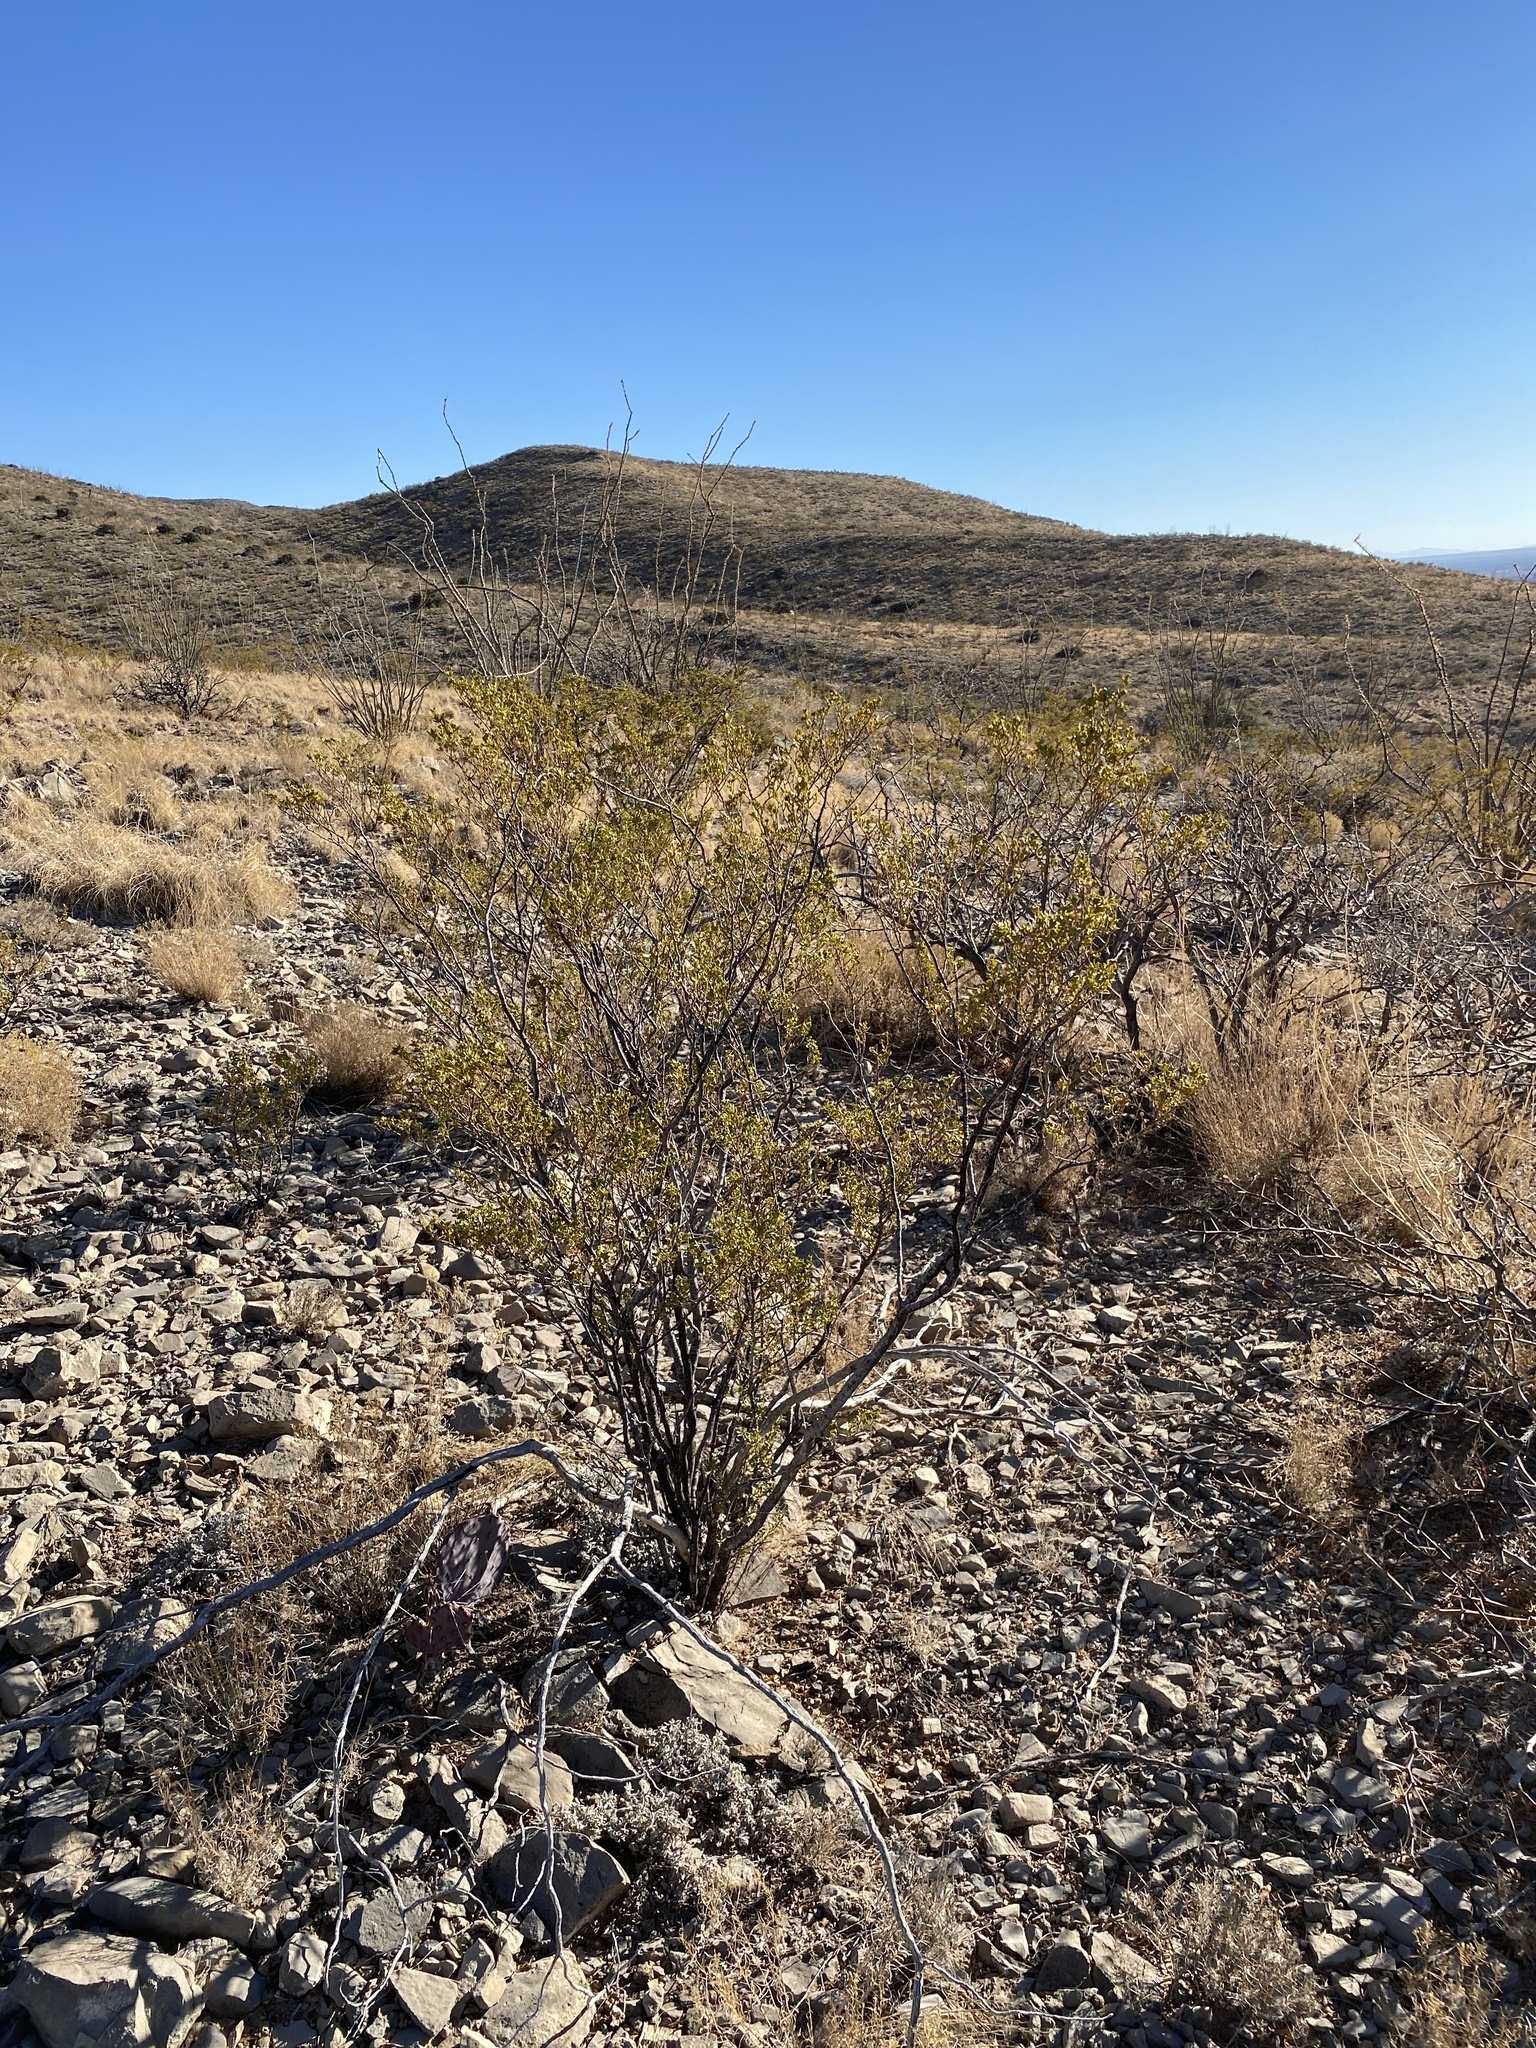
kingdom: Plantae
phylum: Tracheophyta
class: Magnoliopsida
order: Zygophyllales
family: Zygophyllaceae
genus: Larrea
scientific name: Larrea tridentata
